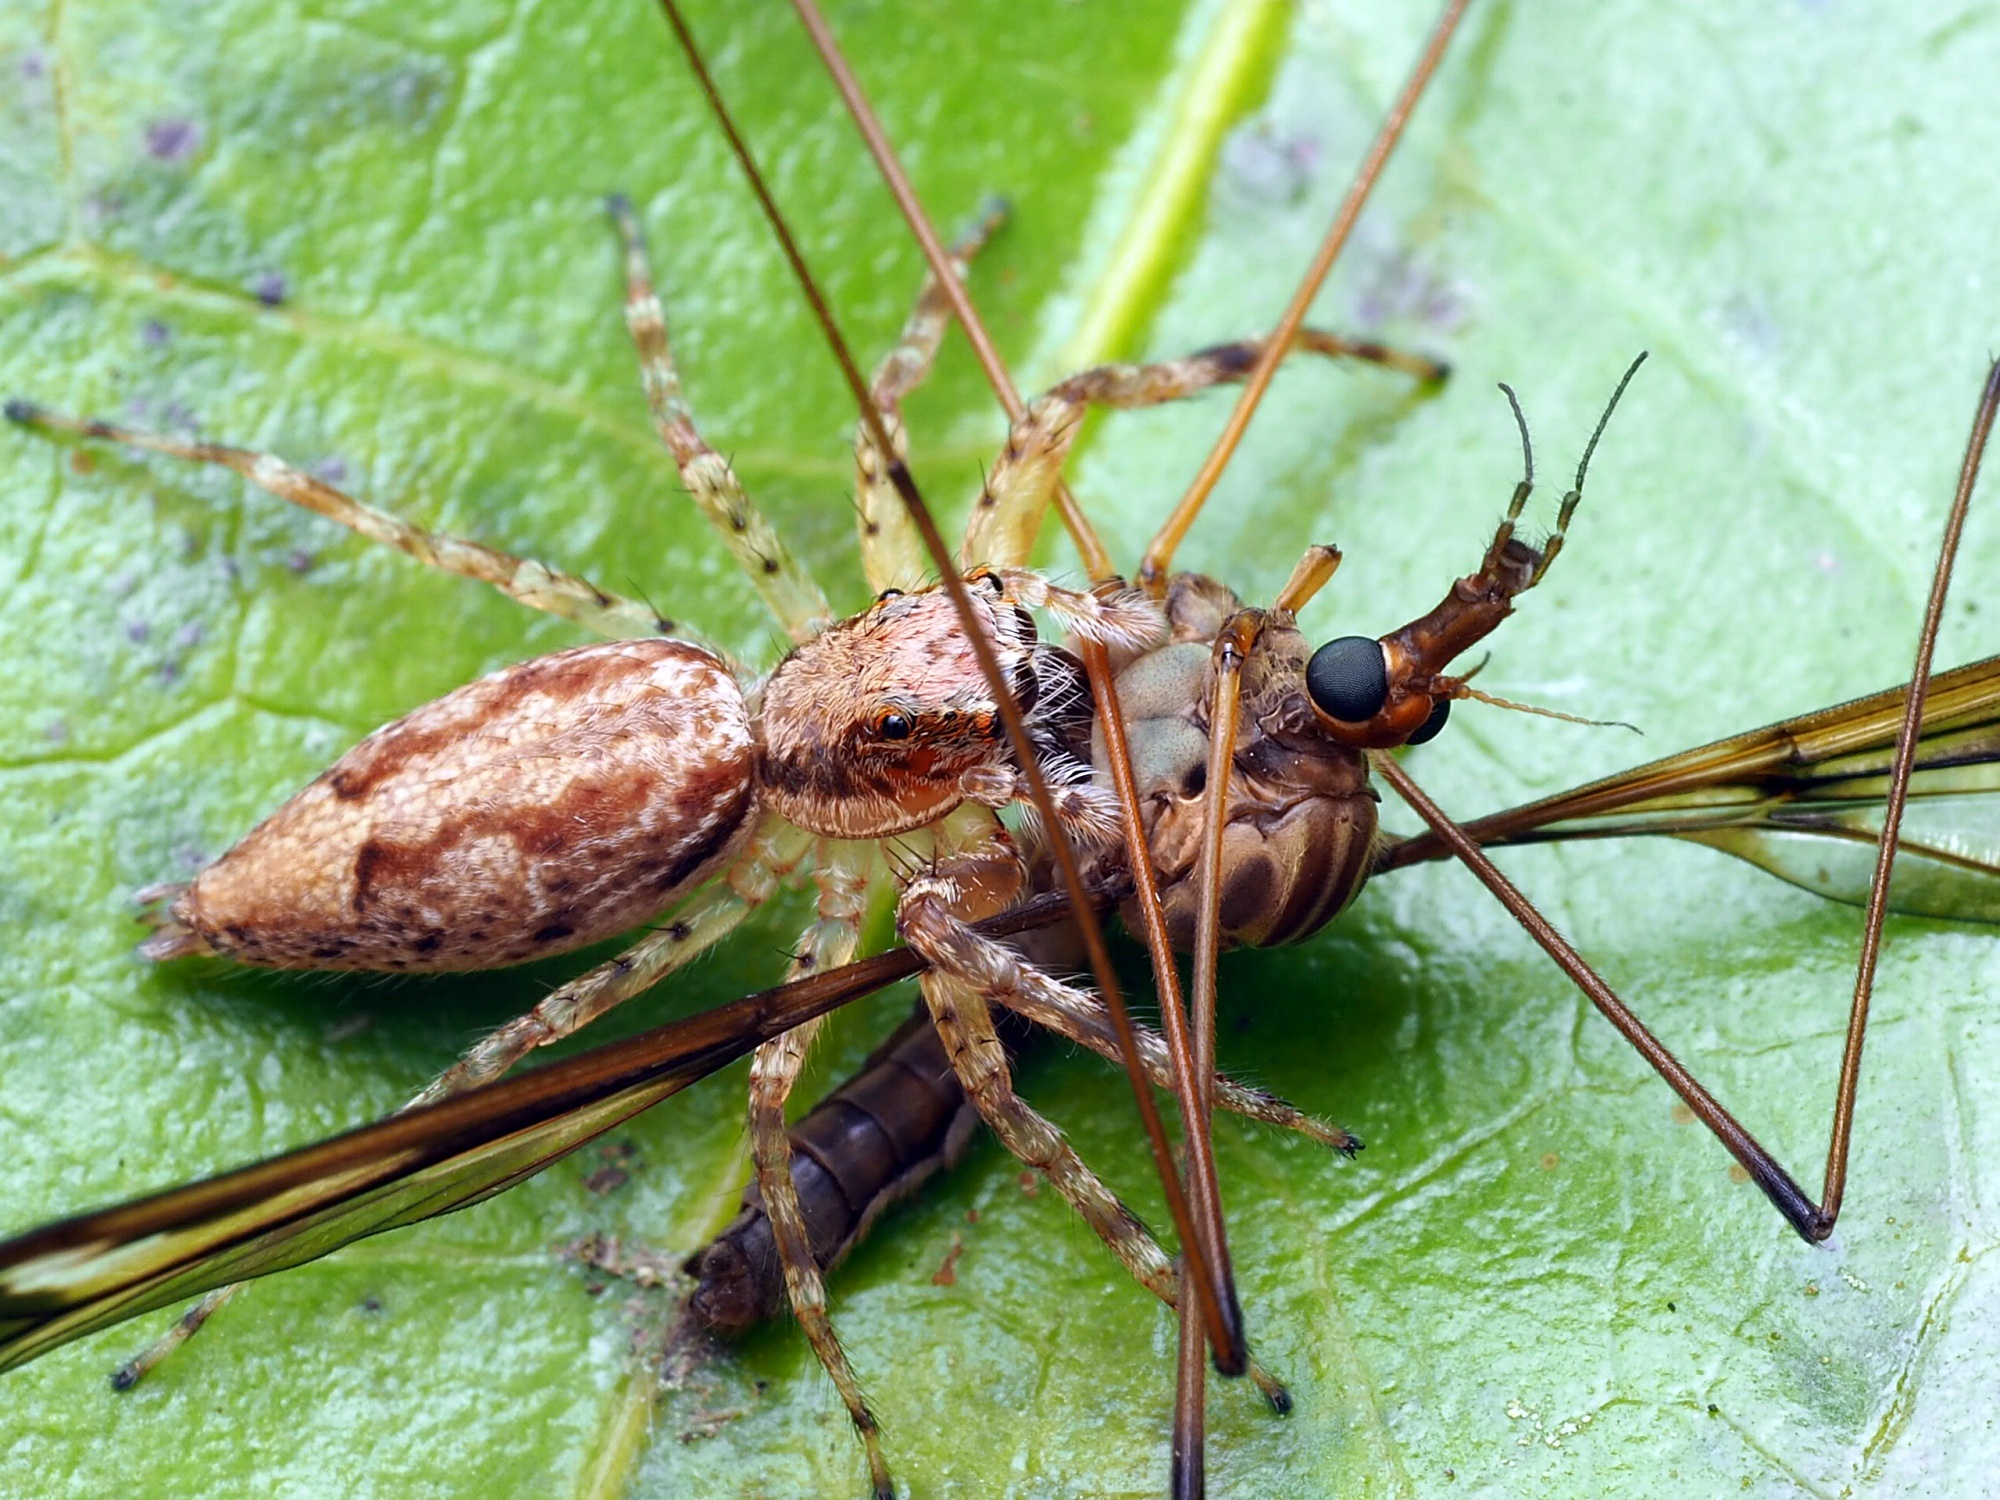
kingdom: Animalia
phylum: Arthropoda
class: Arachnida
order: Araneae
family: Salticidae
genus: Helpis
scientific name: Helpis minitabunda
